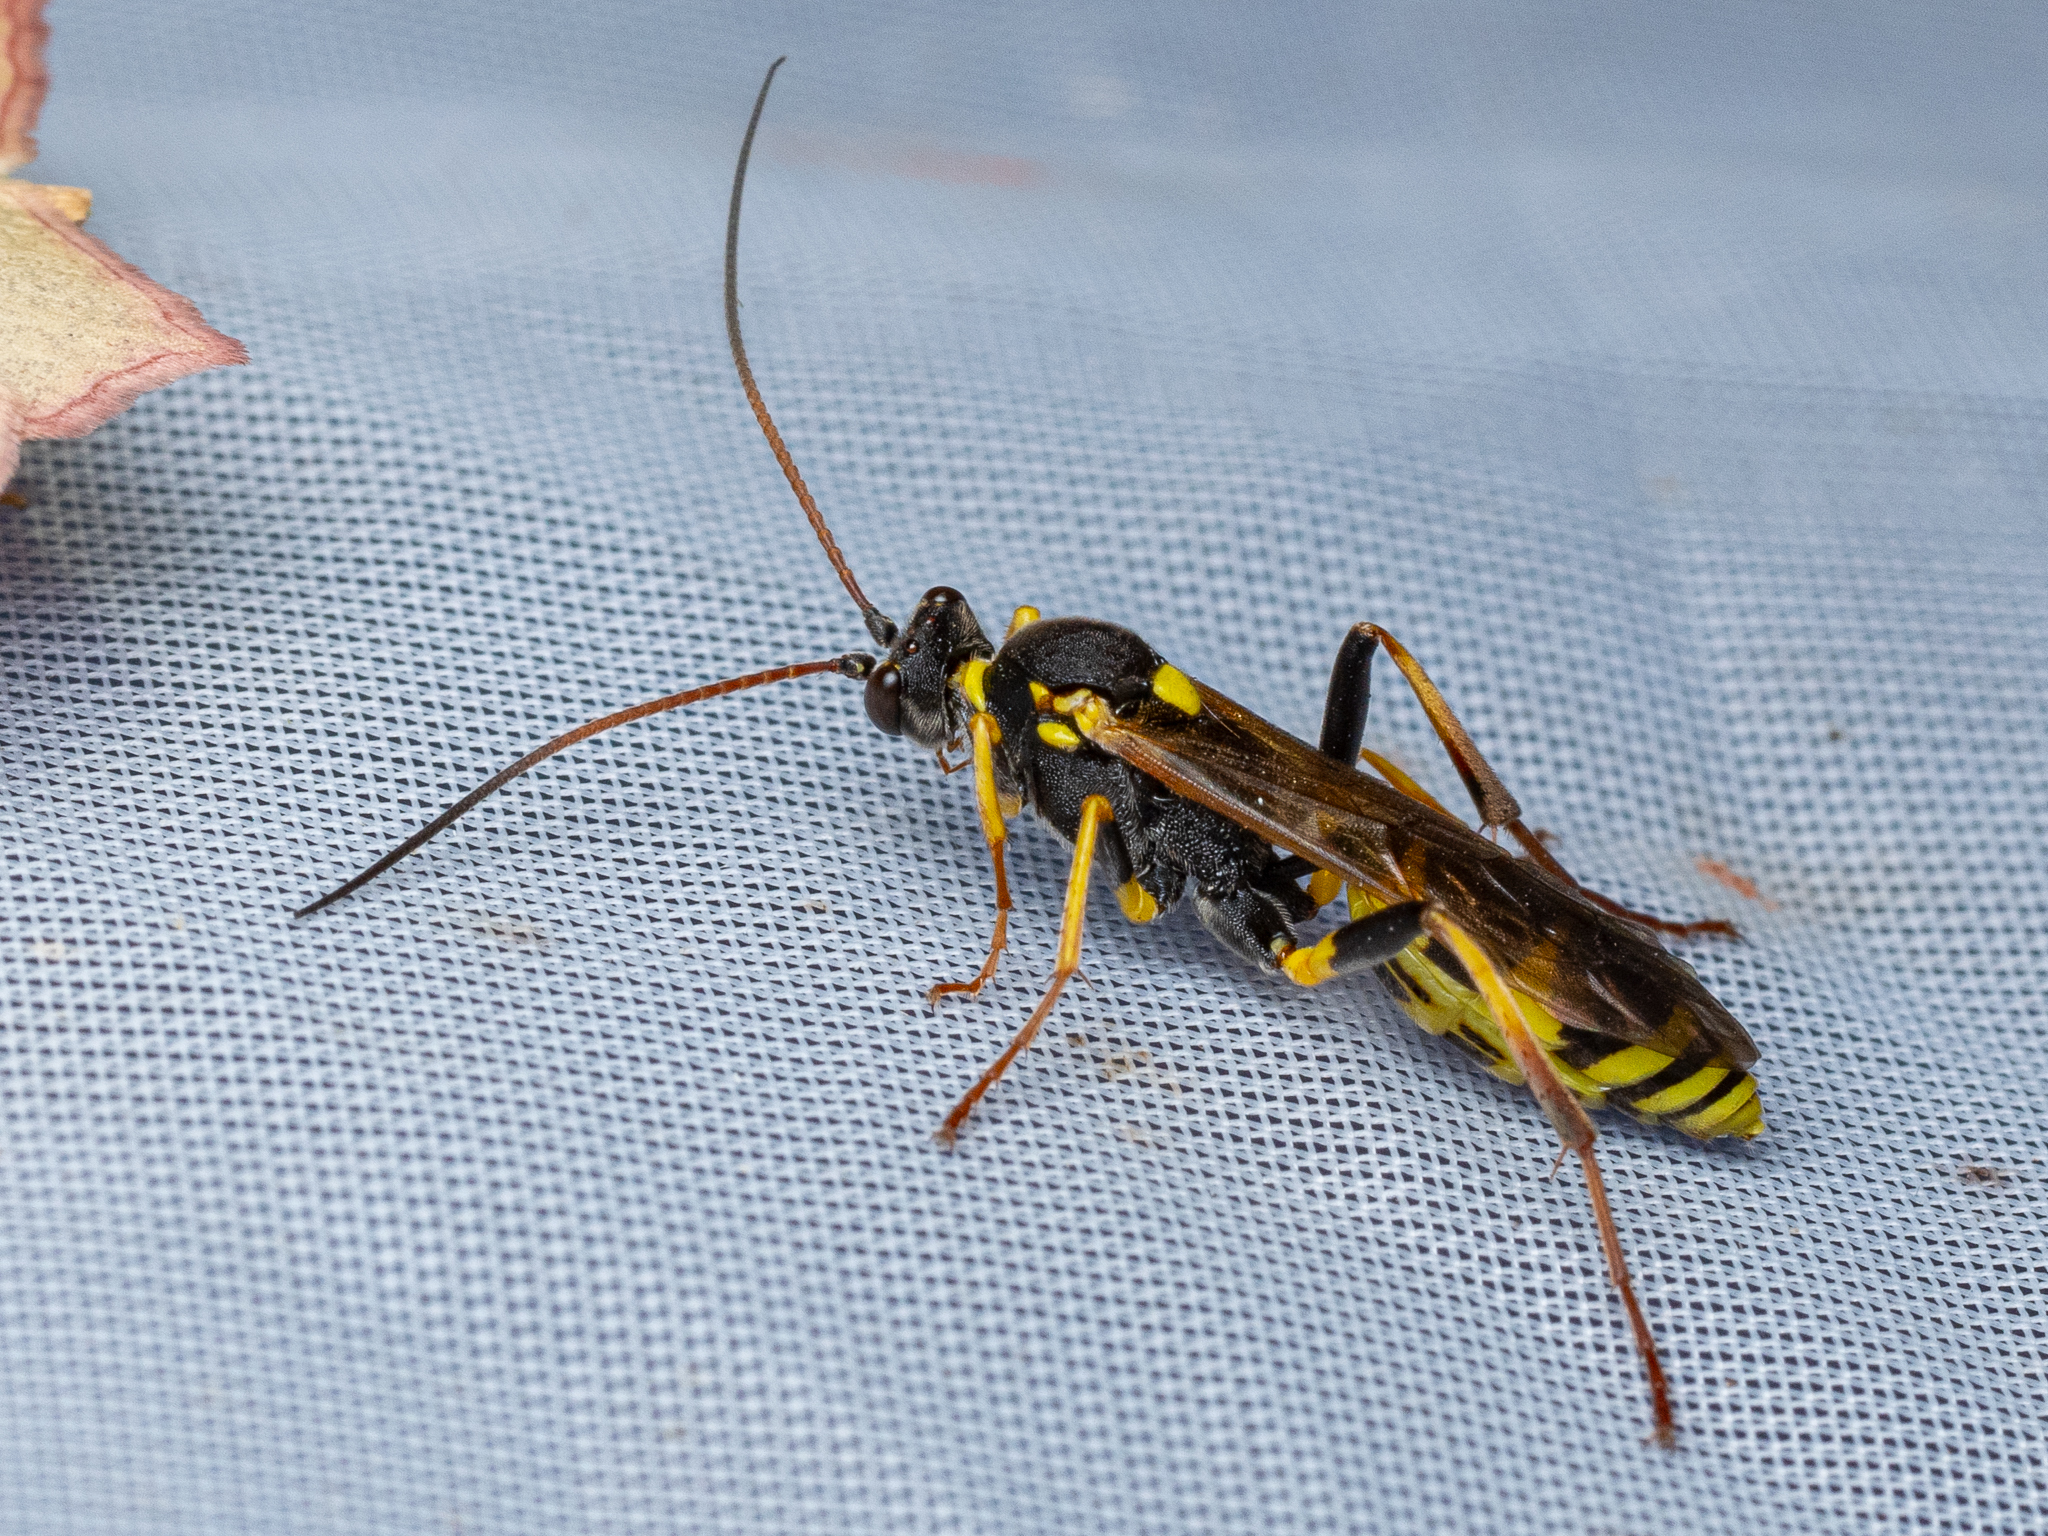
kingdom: Animalia
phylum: Arthropoda
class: Insecta
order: Hymenoptera
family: Ichneumonidae
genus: Amblyteles
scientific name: Amblyteles armatorius
